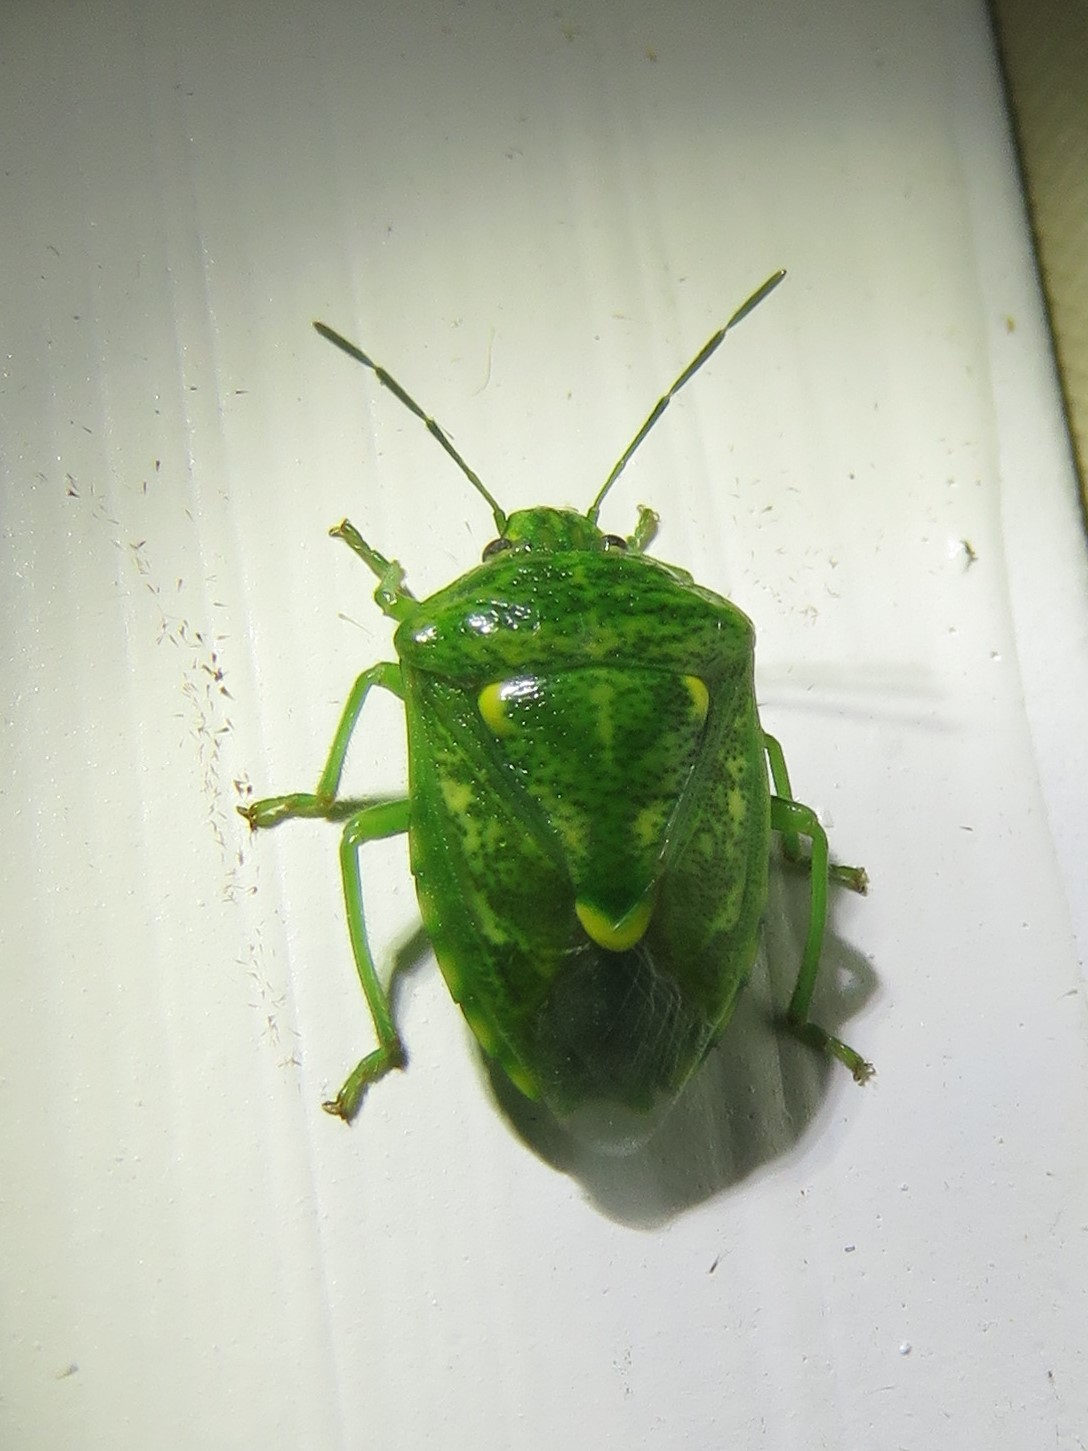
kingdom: Animalia
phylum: Arthropoda
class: Insecta
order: Hemiptera
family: Pentatomidae
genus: Banasa
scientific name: Banasa euchlora
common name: Cedar berry bug
